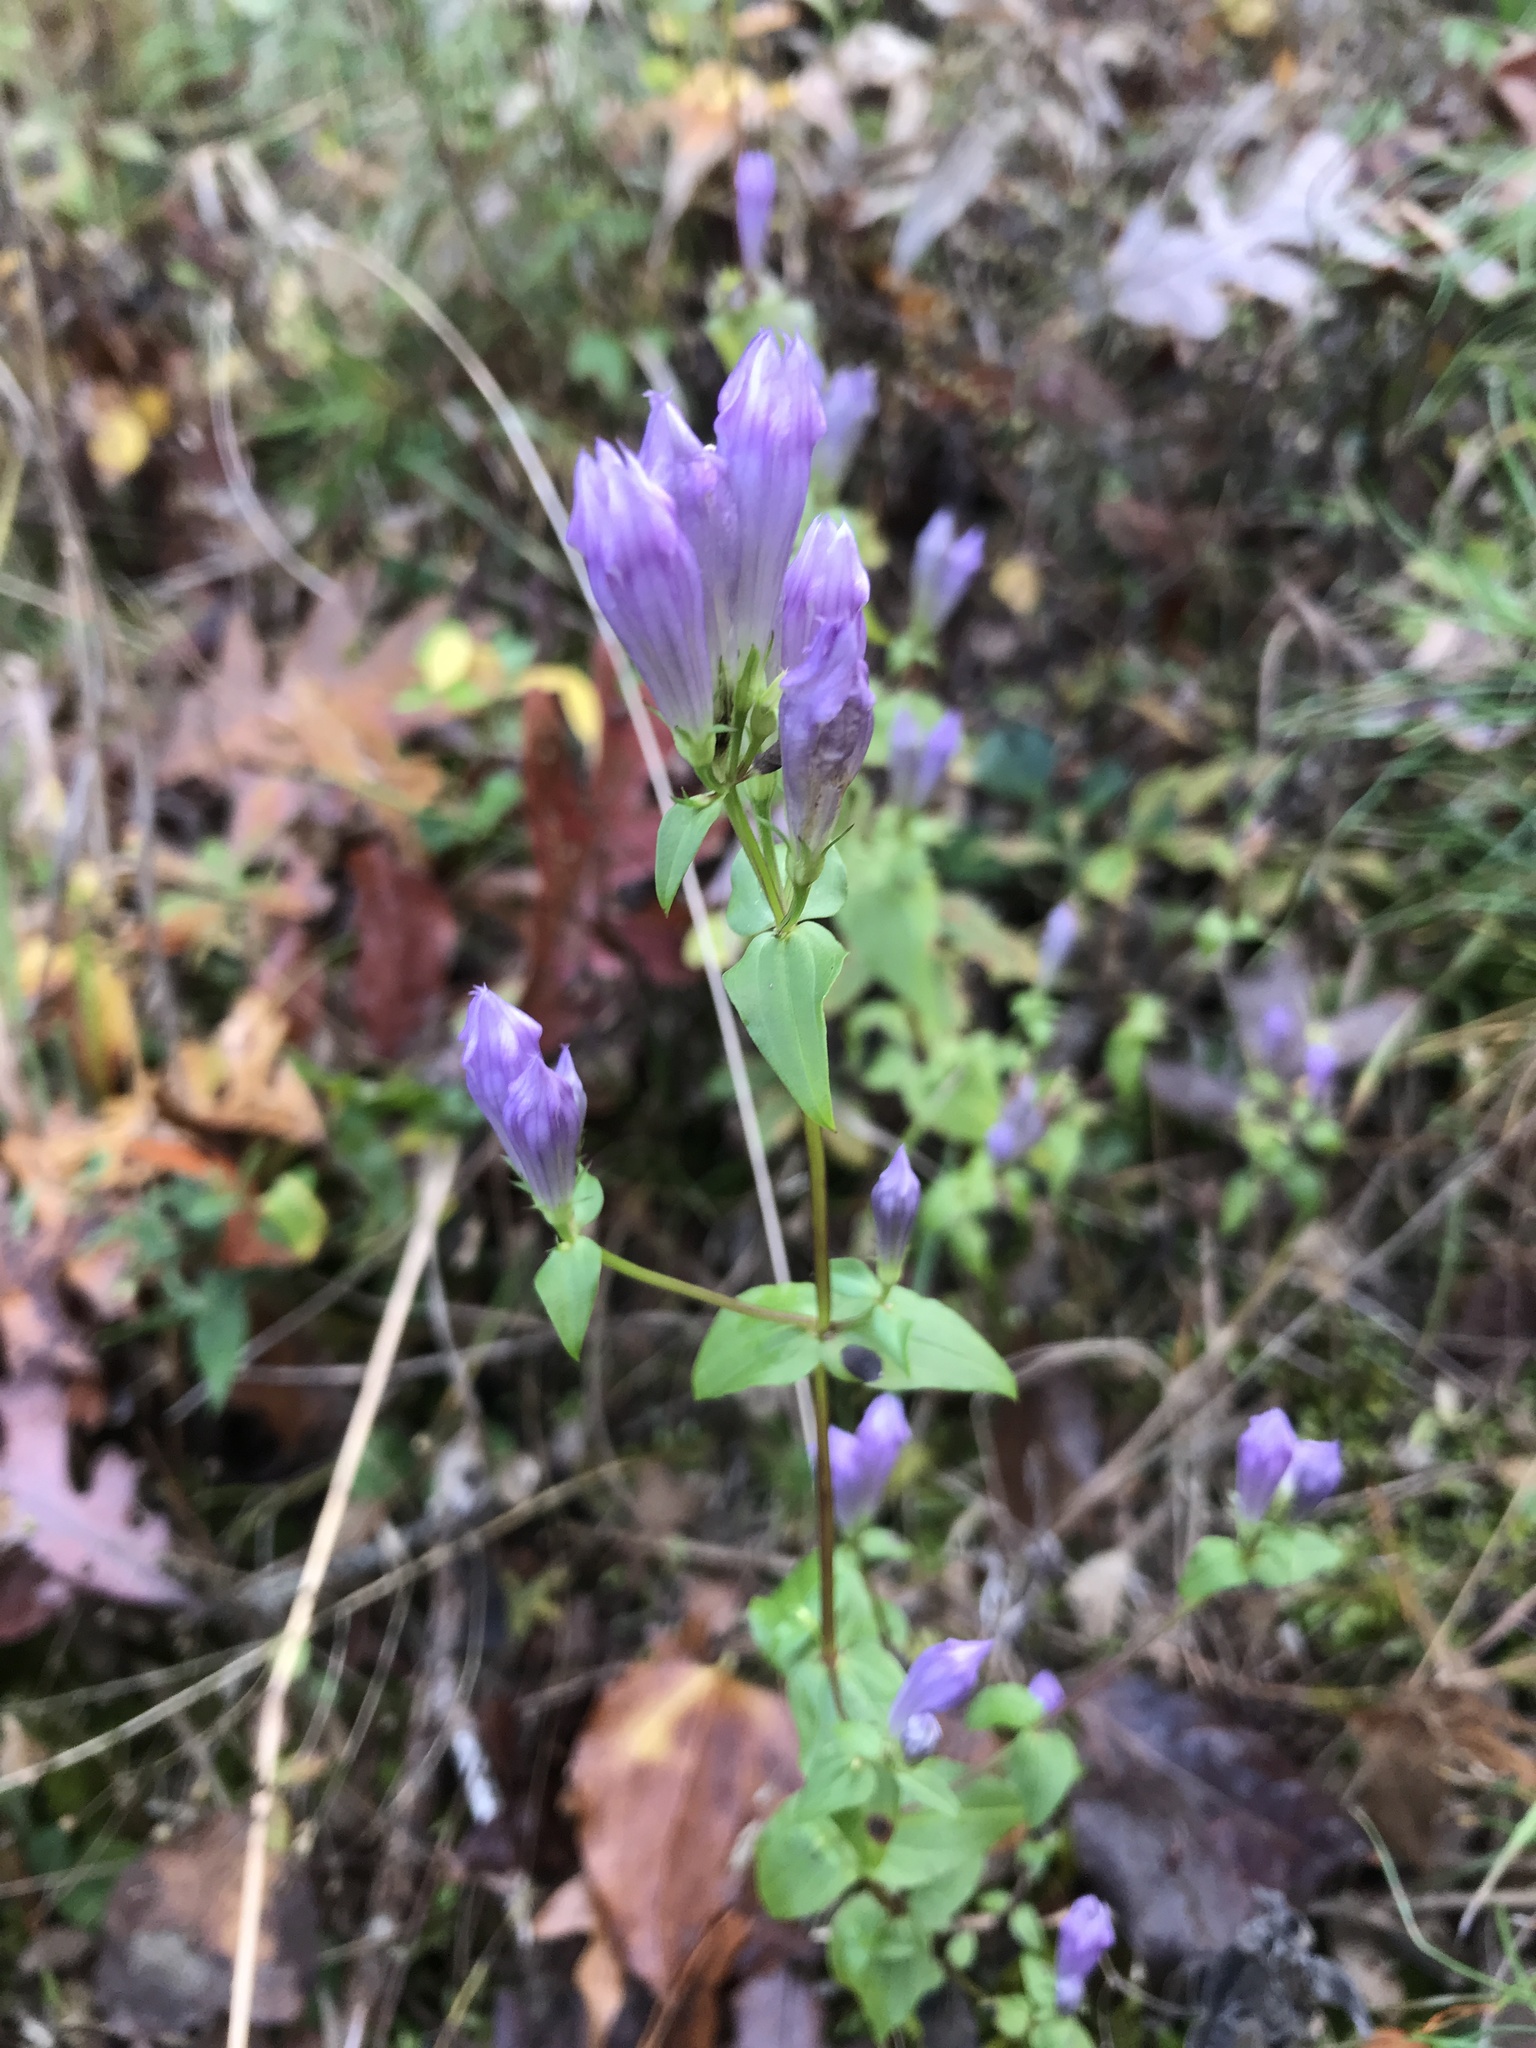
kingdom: Plantae
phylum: Tracheophyta
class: Magnoliopsida
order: Gentianales
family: Gentianaceae
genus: Gentianella
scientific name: Gentianella quinquefolia
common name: Agueweed
